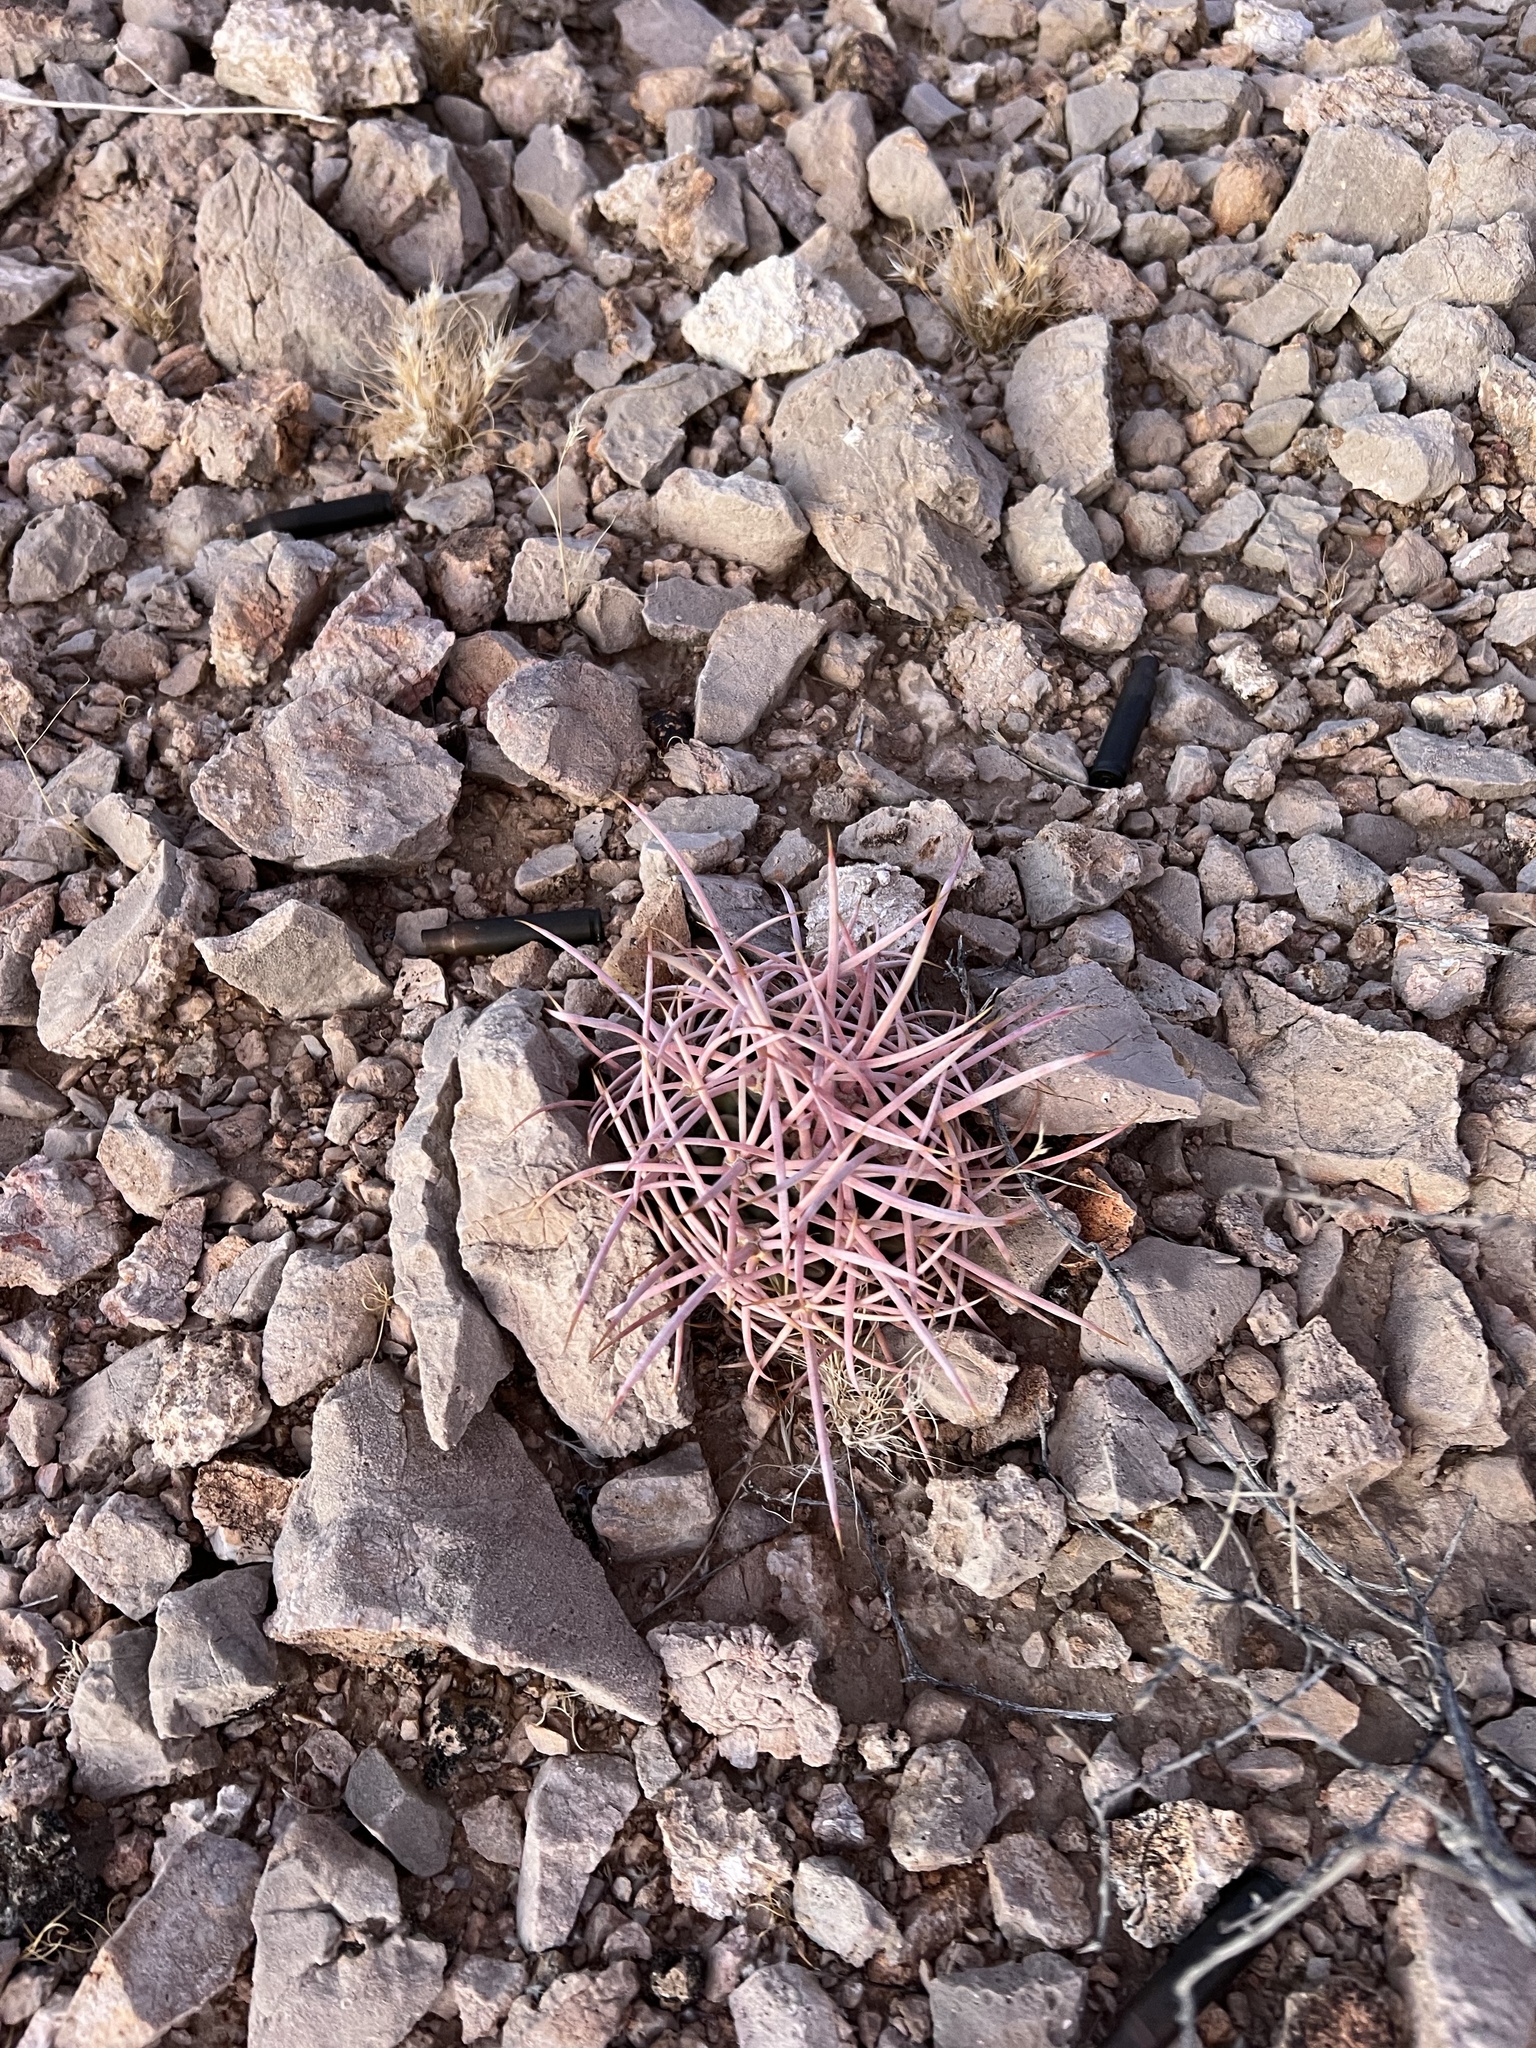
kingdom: Plantae
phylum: Tracheophyta
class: Magnoliopsida
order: Caryophyllales
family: Cactaceae
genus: Echinocactus
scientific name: Echinocactus polycephalus
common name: Cottontop cactus
